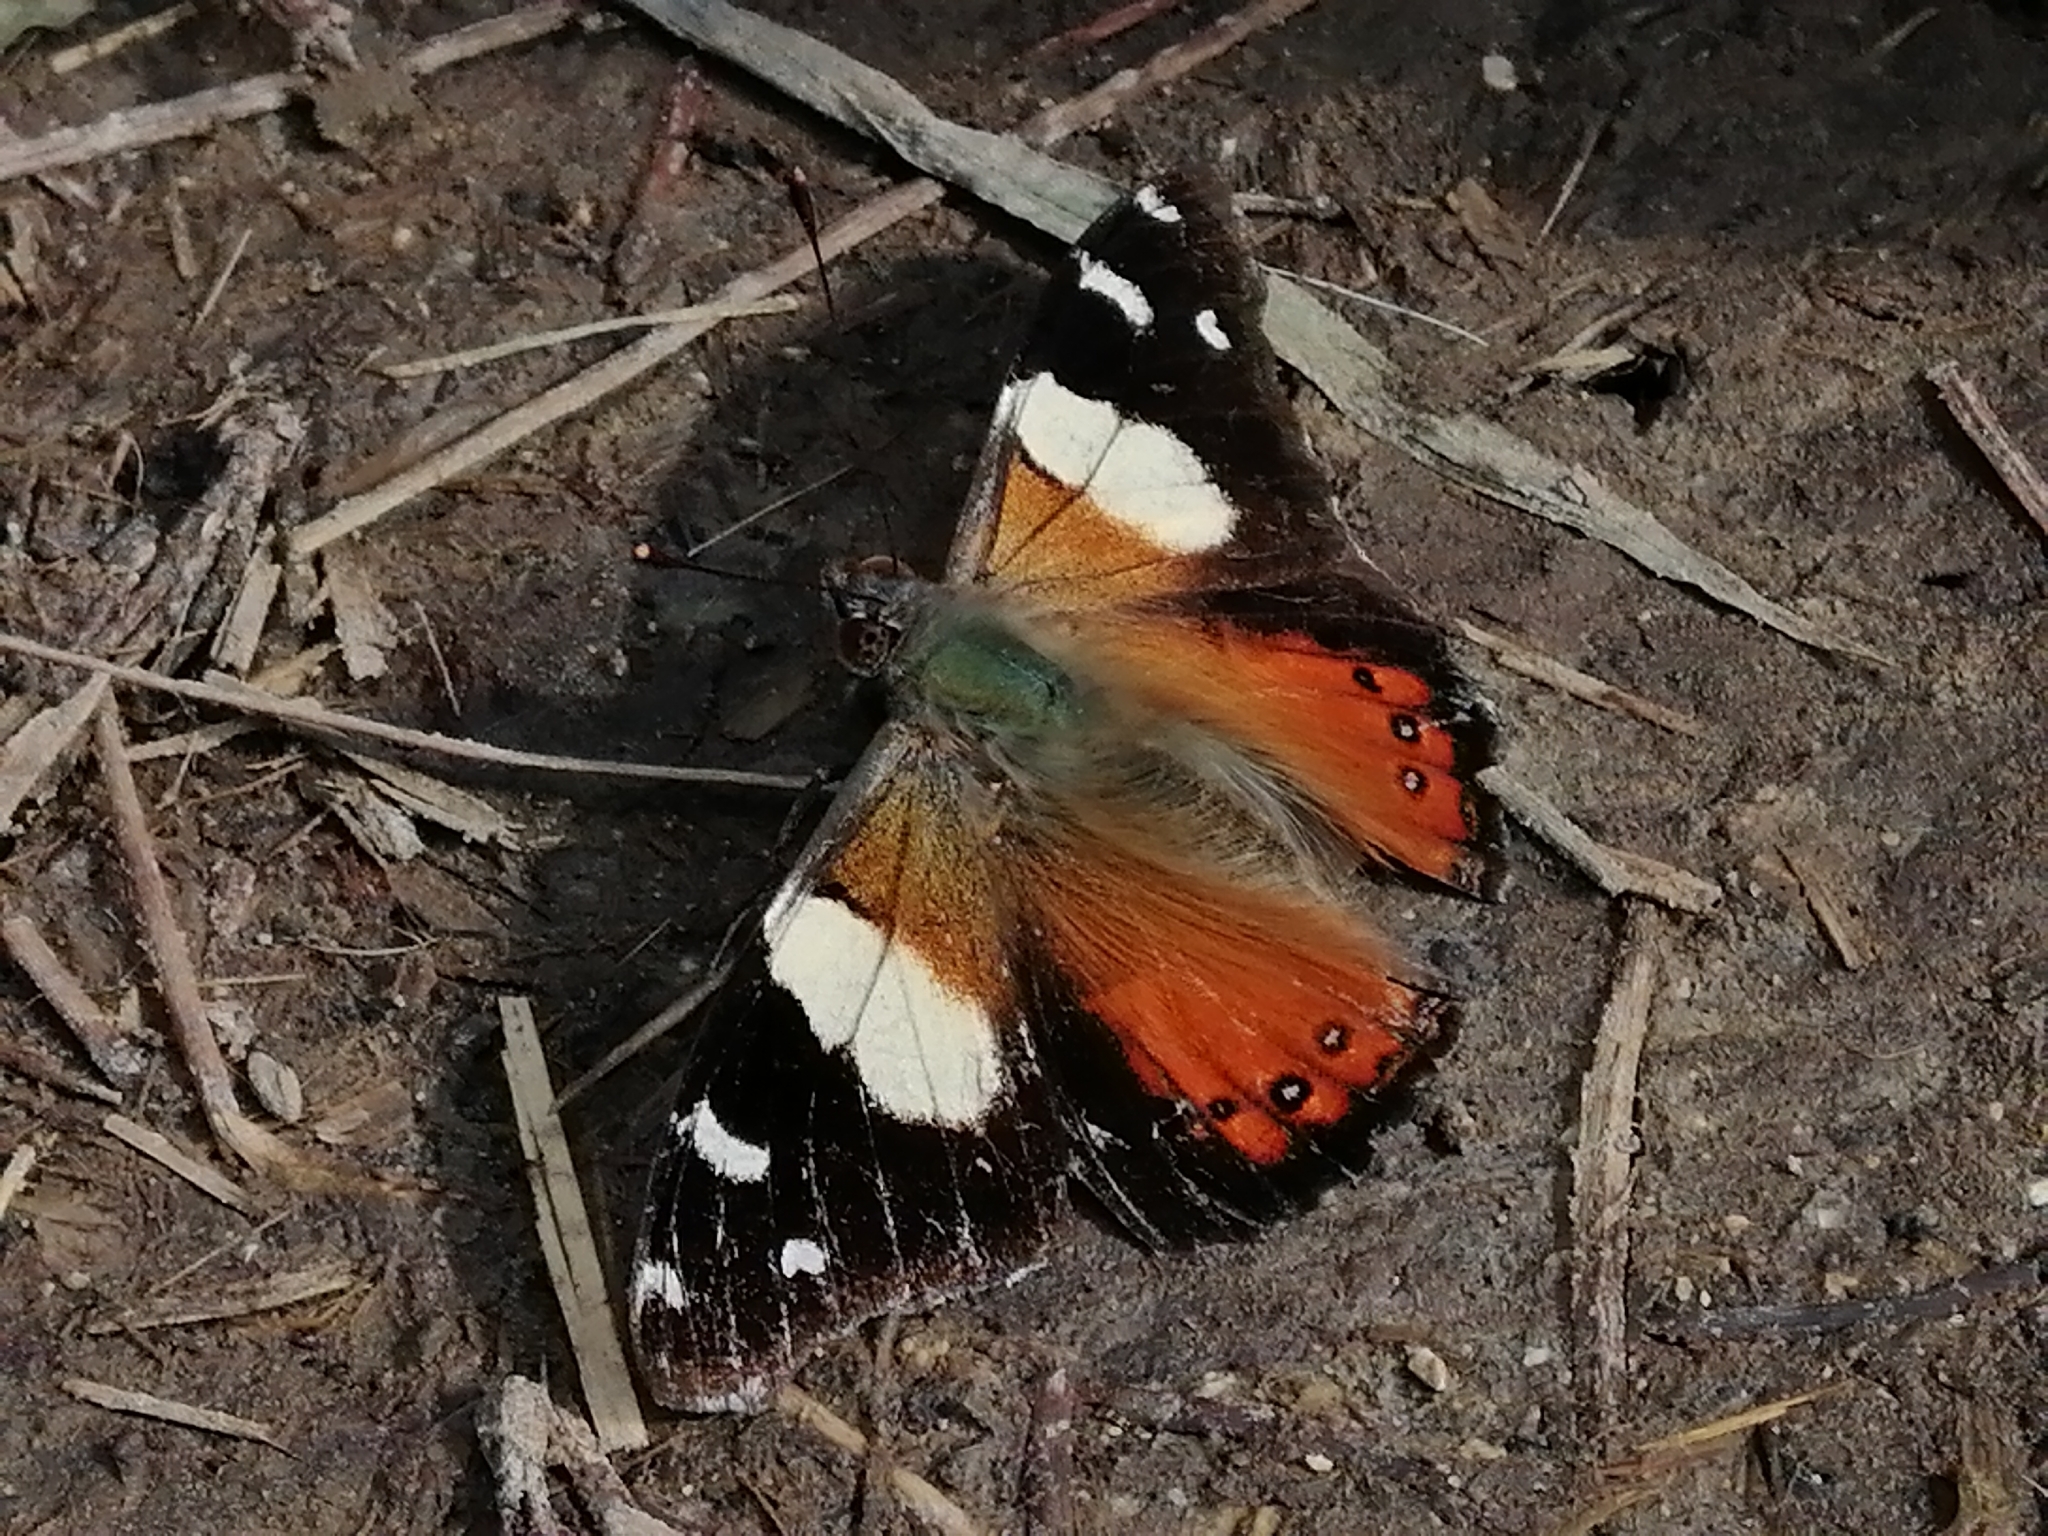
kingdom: Animalia
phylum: Arthropoda
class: Insecta
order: Lepidoptera
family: Nymphalidae
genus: Vanessa
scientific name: Vanessa itea
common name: Yellow admiral
